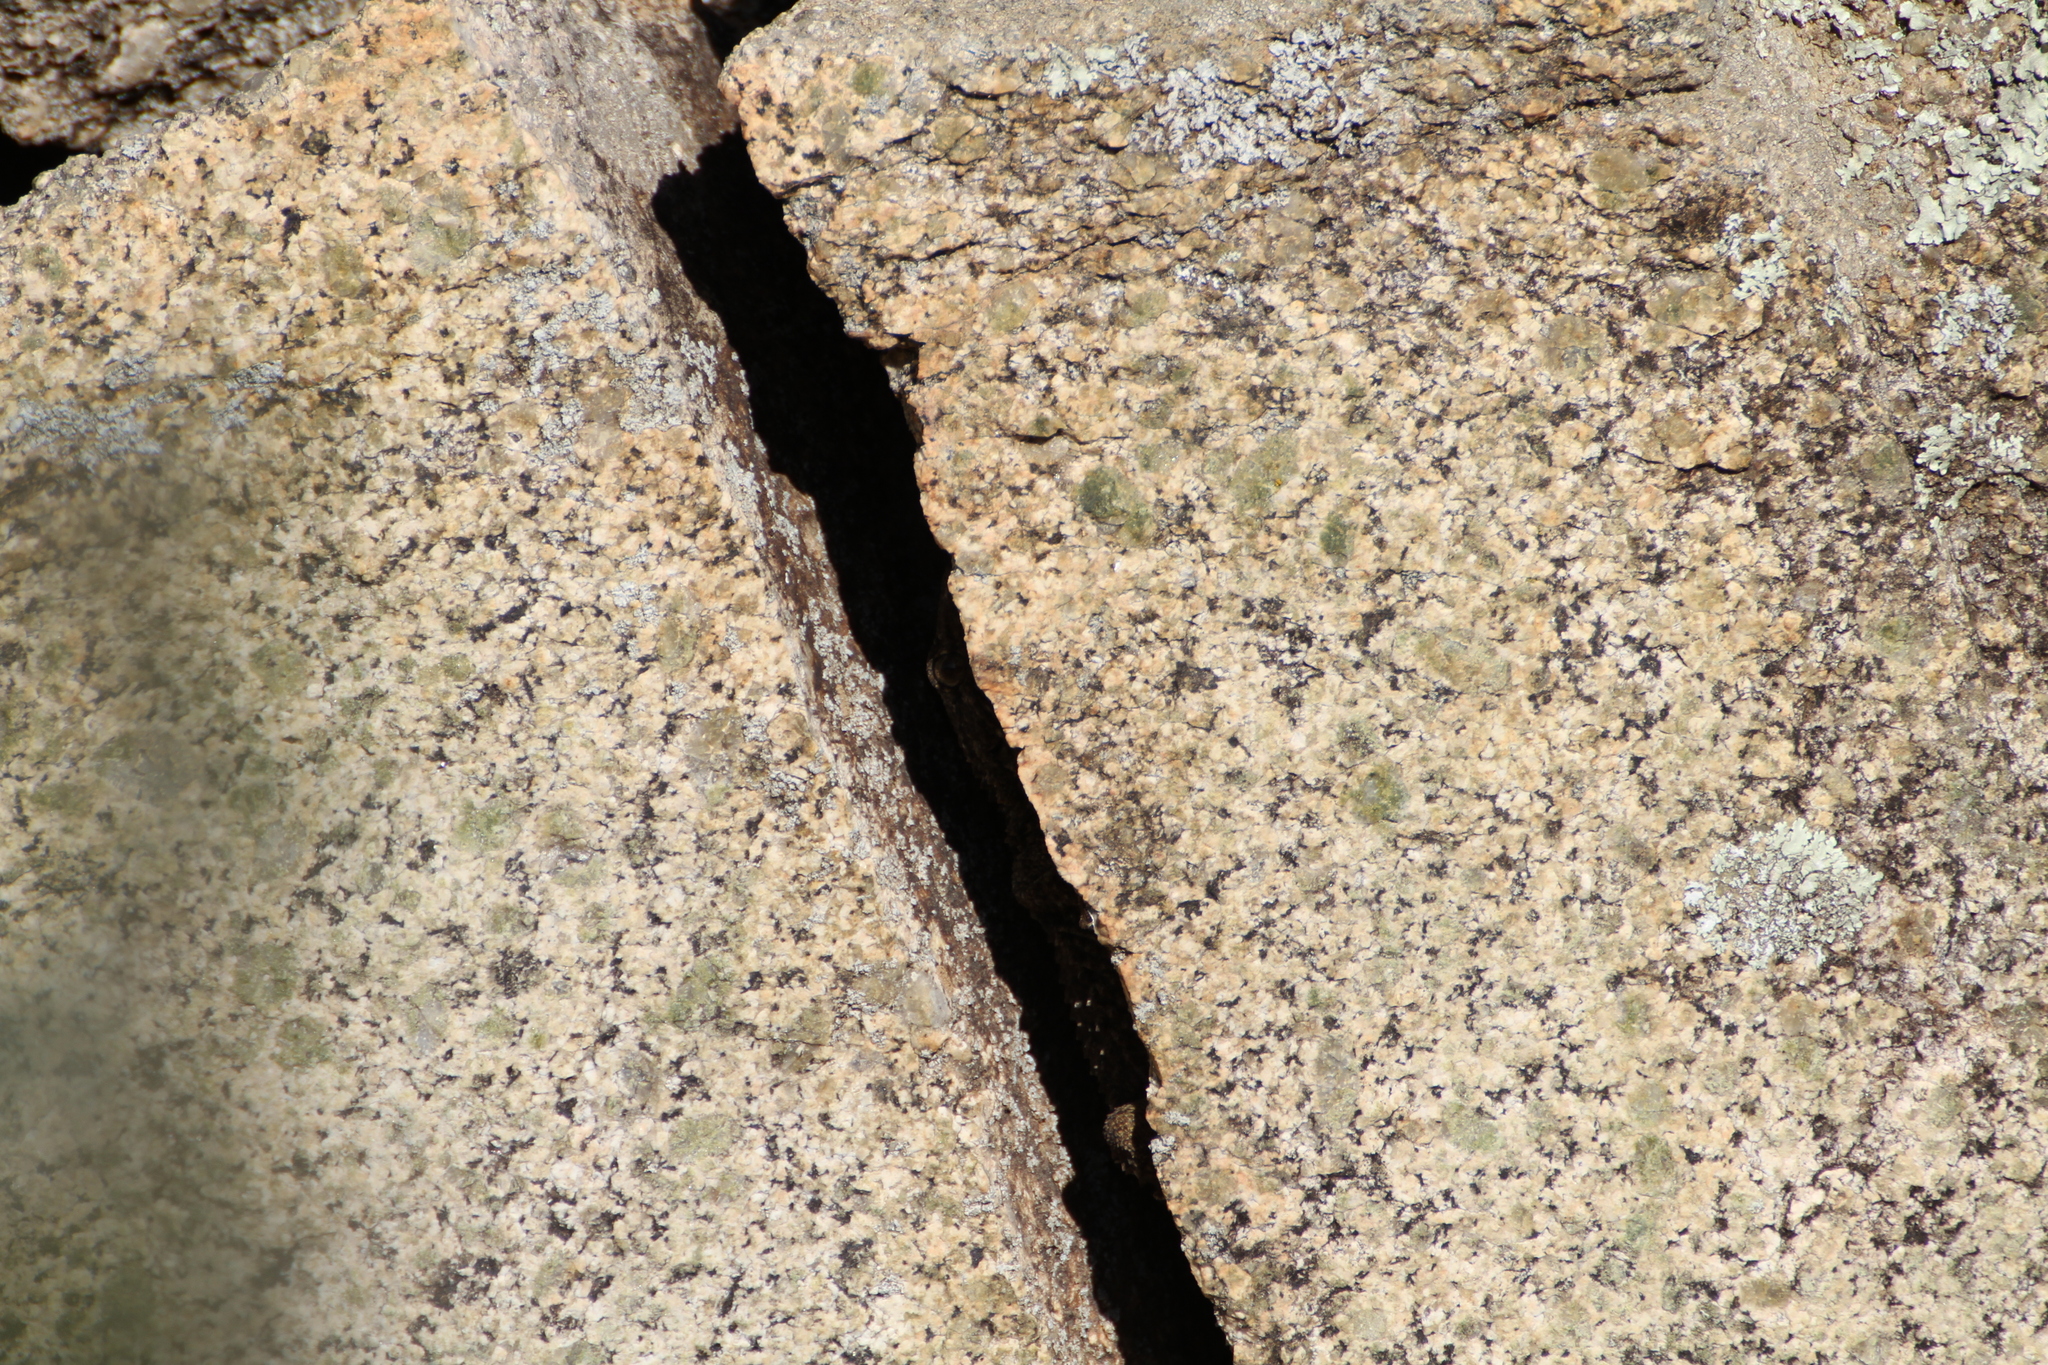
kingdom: Animalia
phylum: Chordata
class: Squamata
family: Phyllodactylidae
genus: Tarentola
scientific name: Tarentola mauritanica
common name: Moorish gecko
